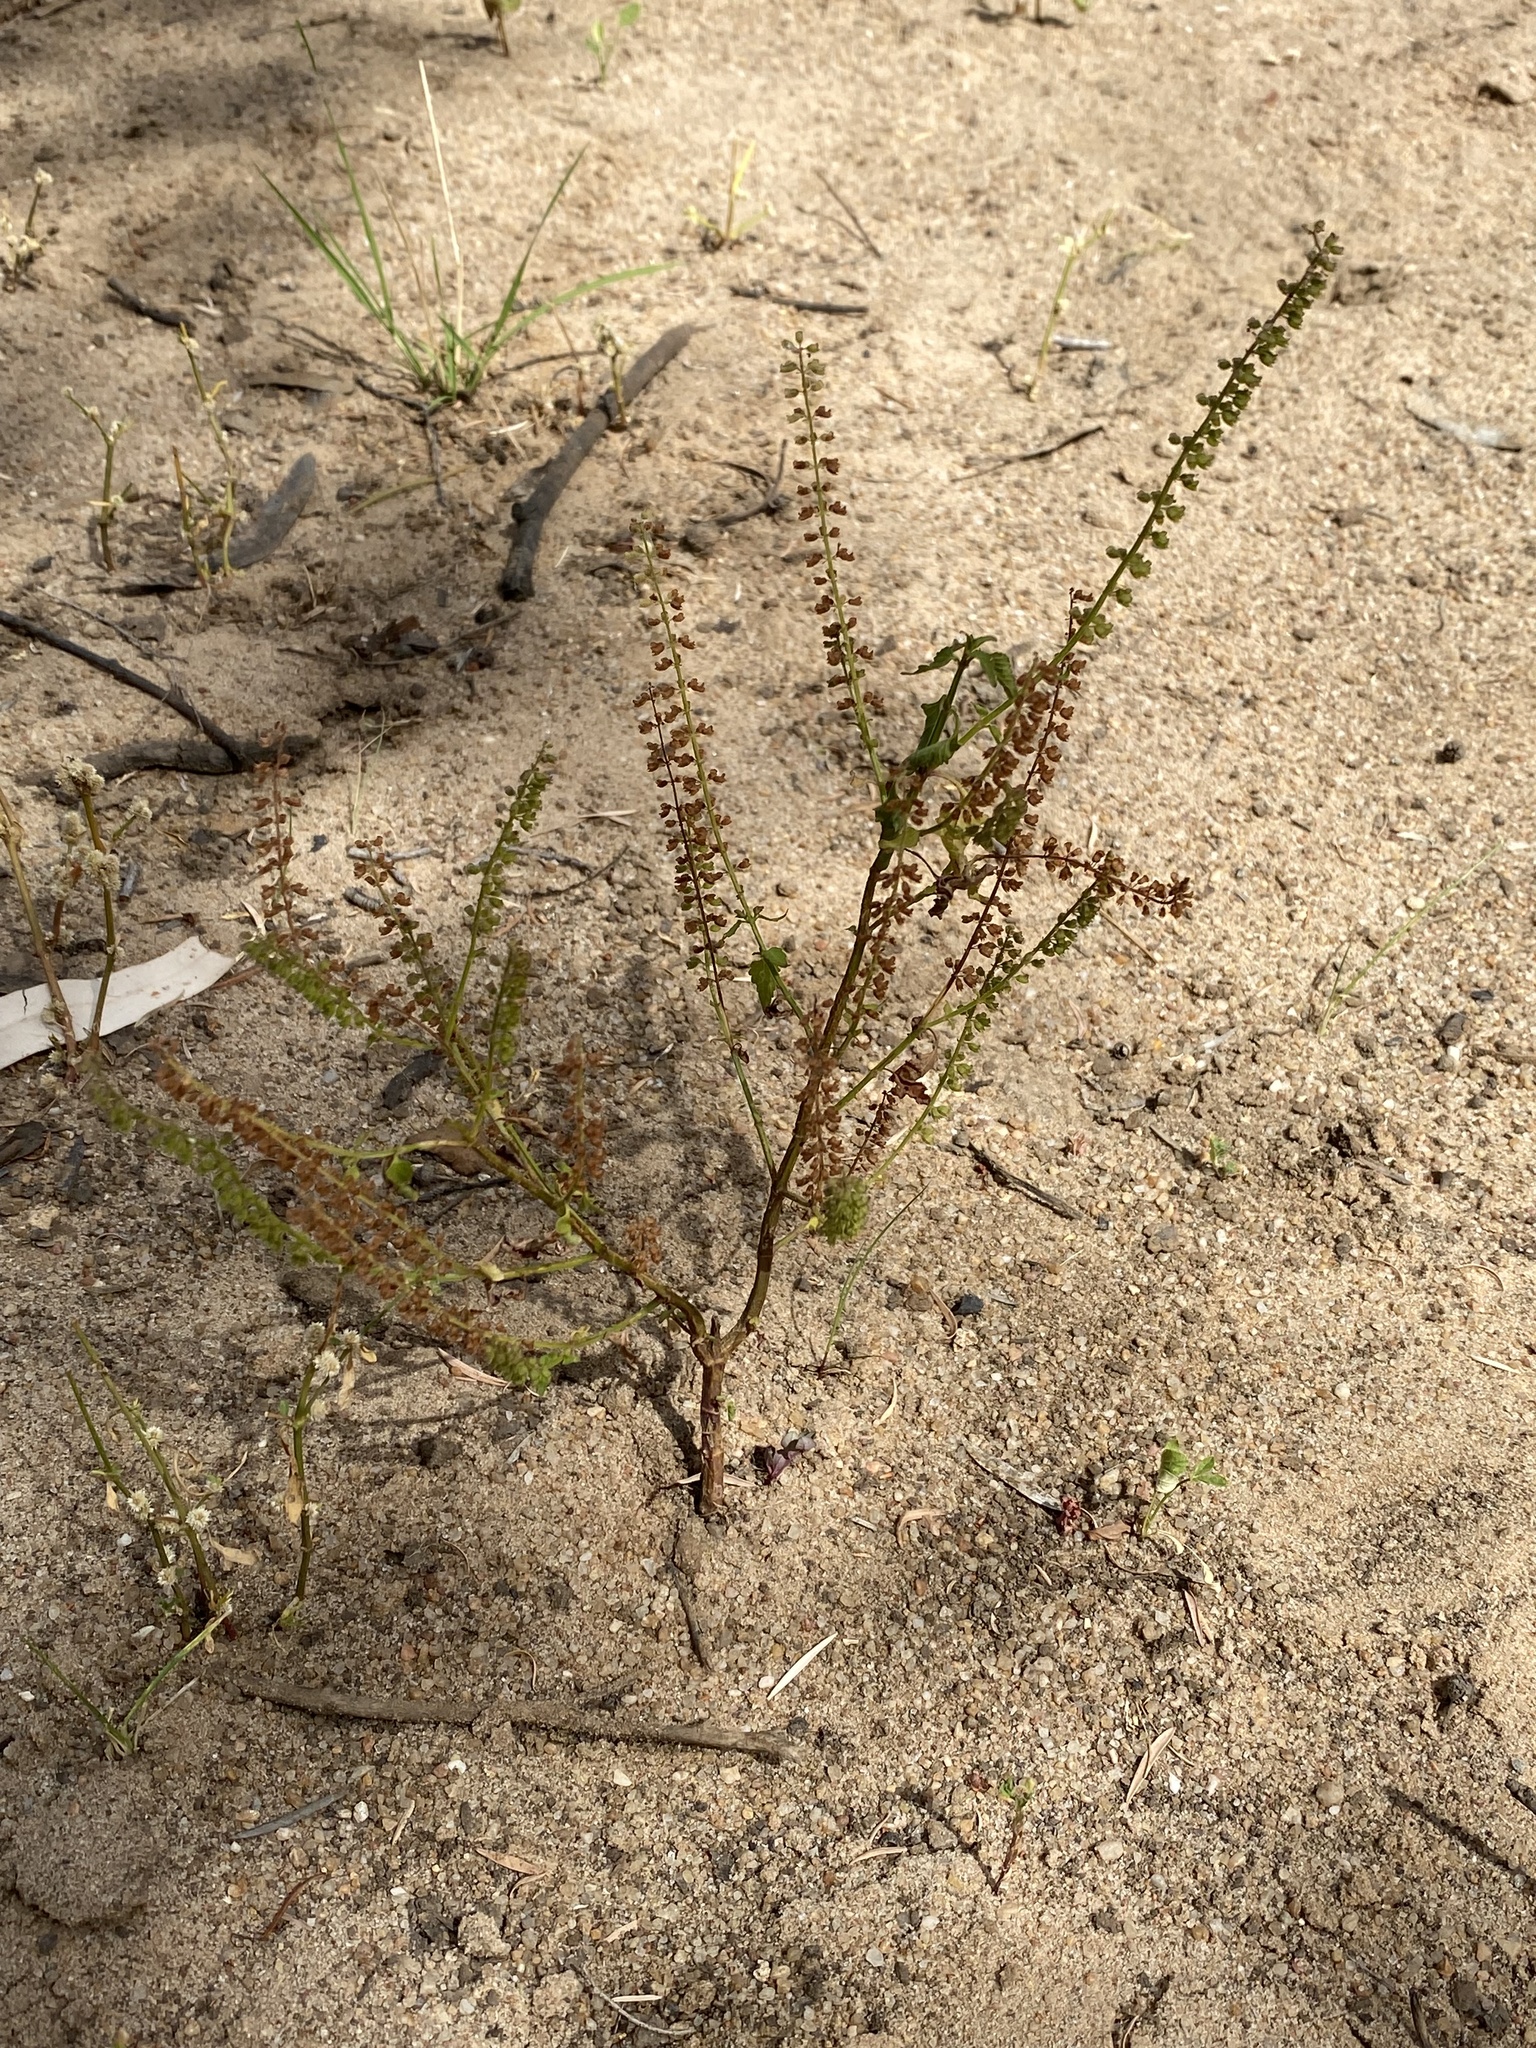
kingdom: Plantae
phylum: Tracheophyta
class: Magnoliopsida
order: Lamiales
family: Lamiaceae
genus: Basilicum
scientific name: Basilicum polystachyon
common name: Musk-basil
